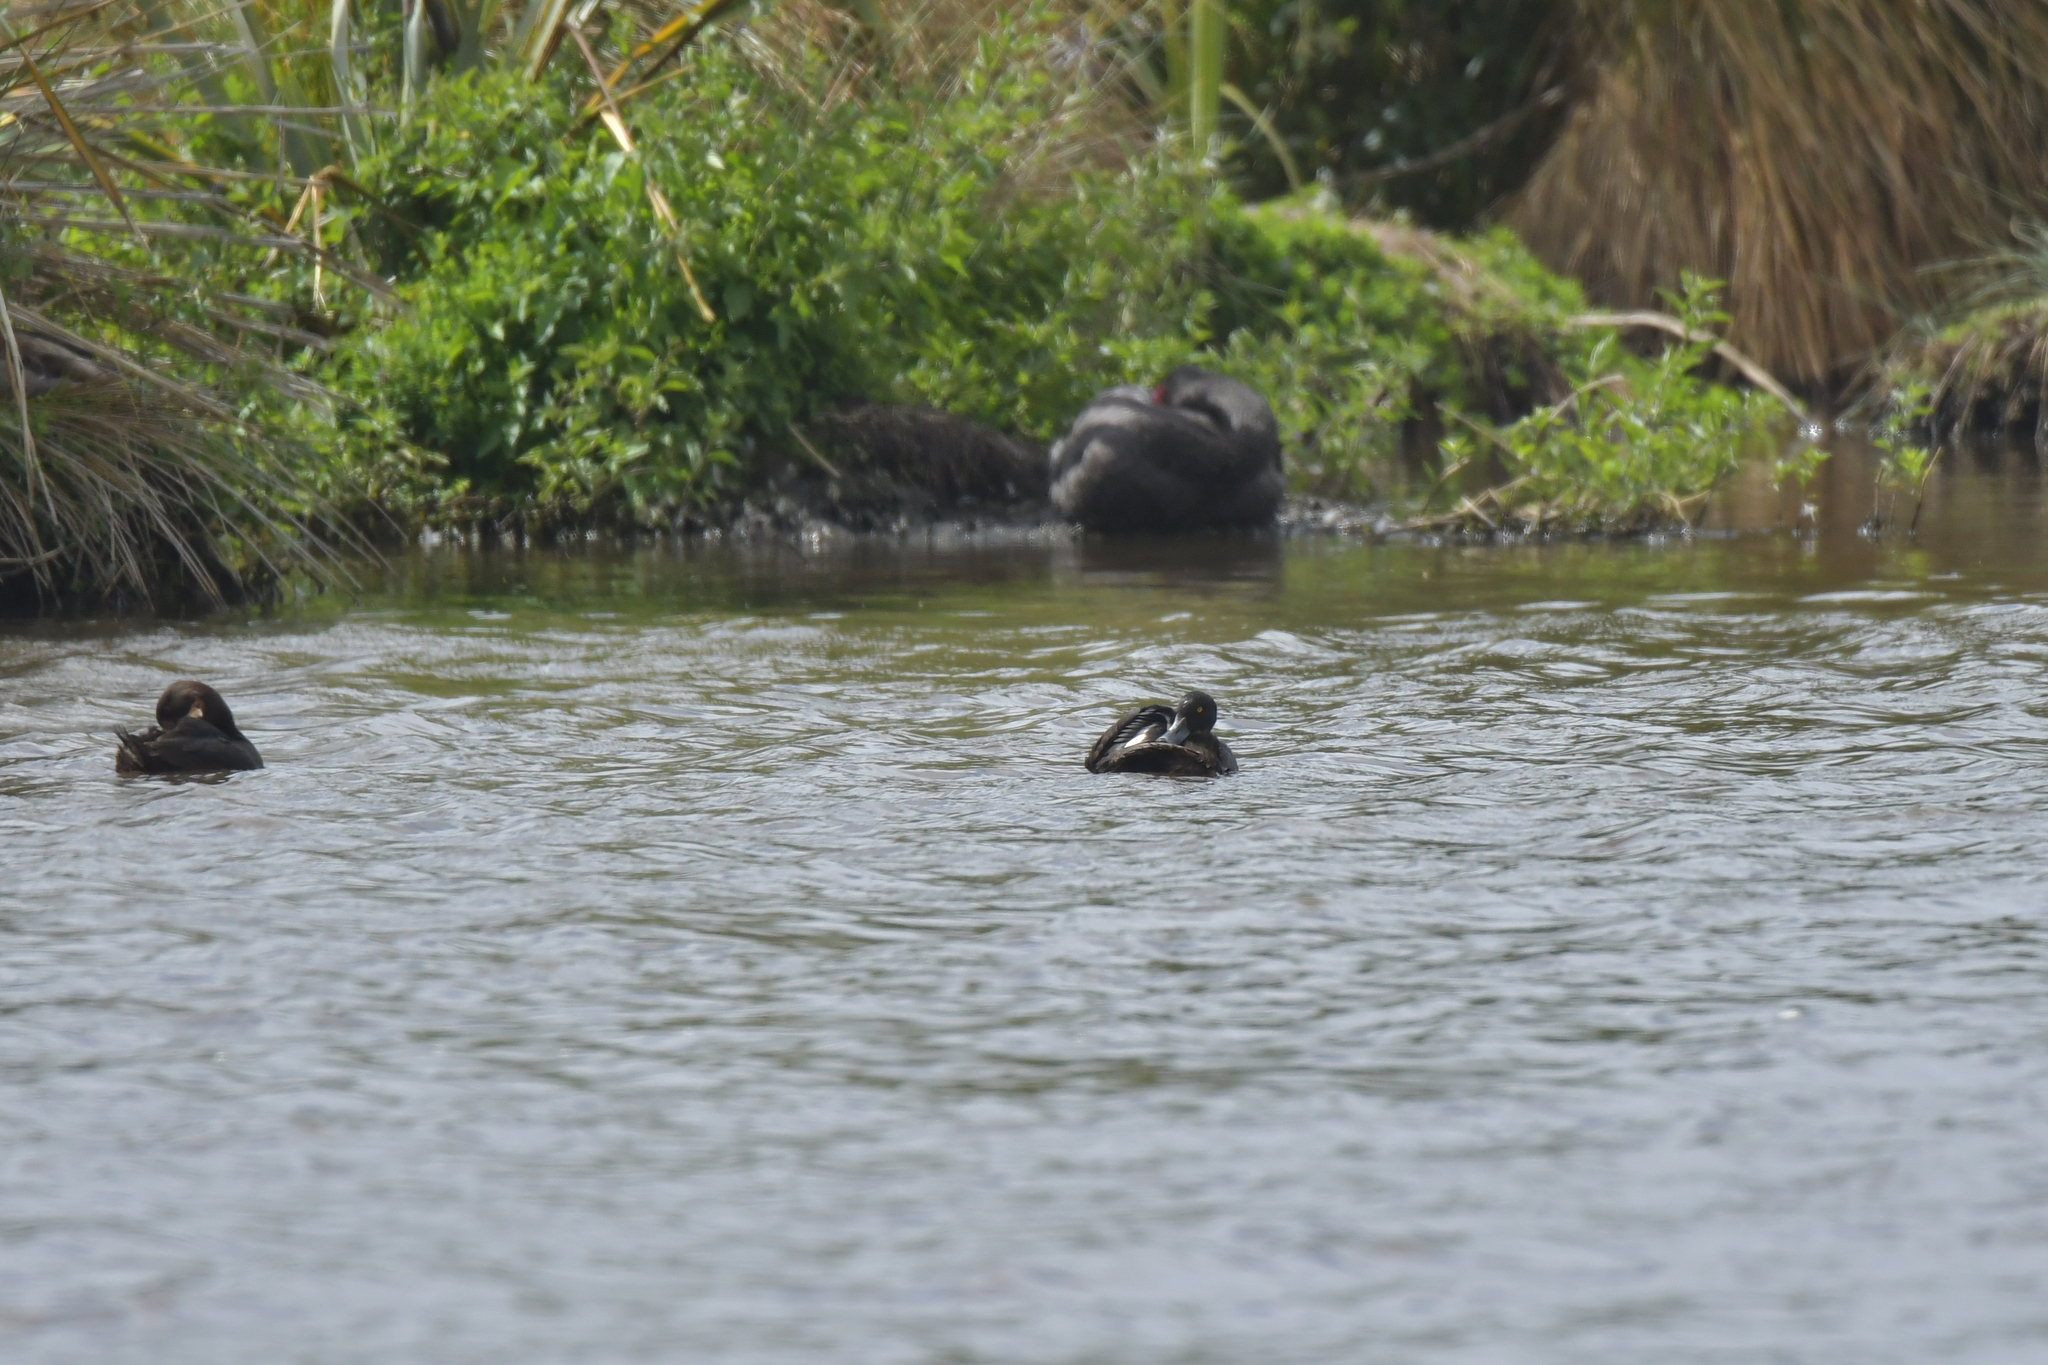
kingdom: Animalia
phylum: Chordata
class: Aves
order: Anseriformes
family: Anatidae
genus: Aythya
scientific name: Aythya novaeseelandiae
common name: New zealand scaup
